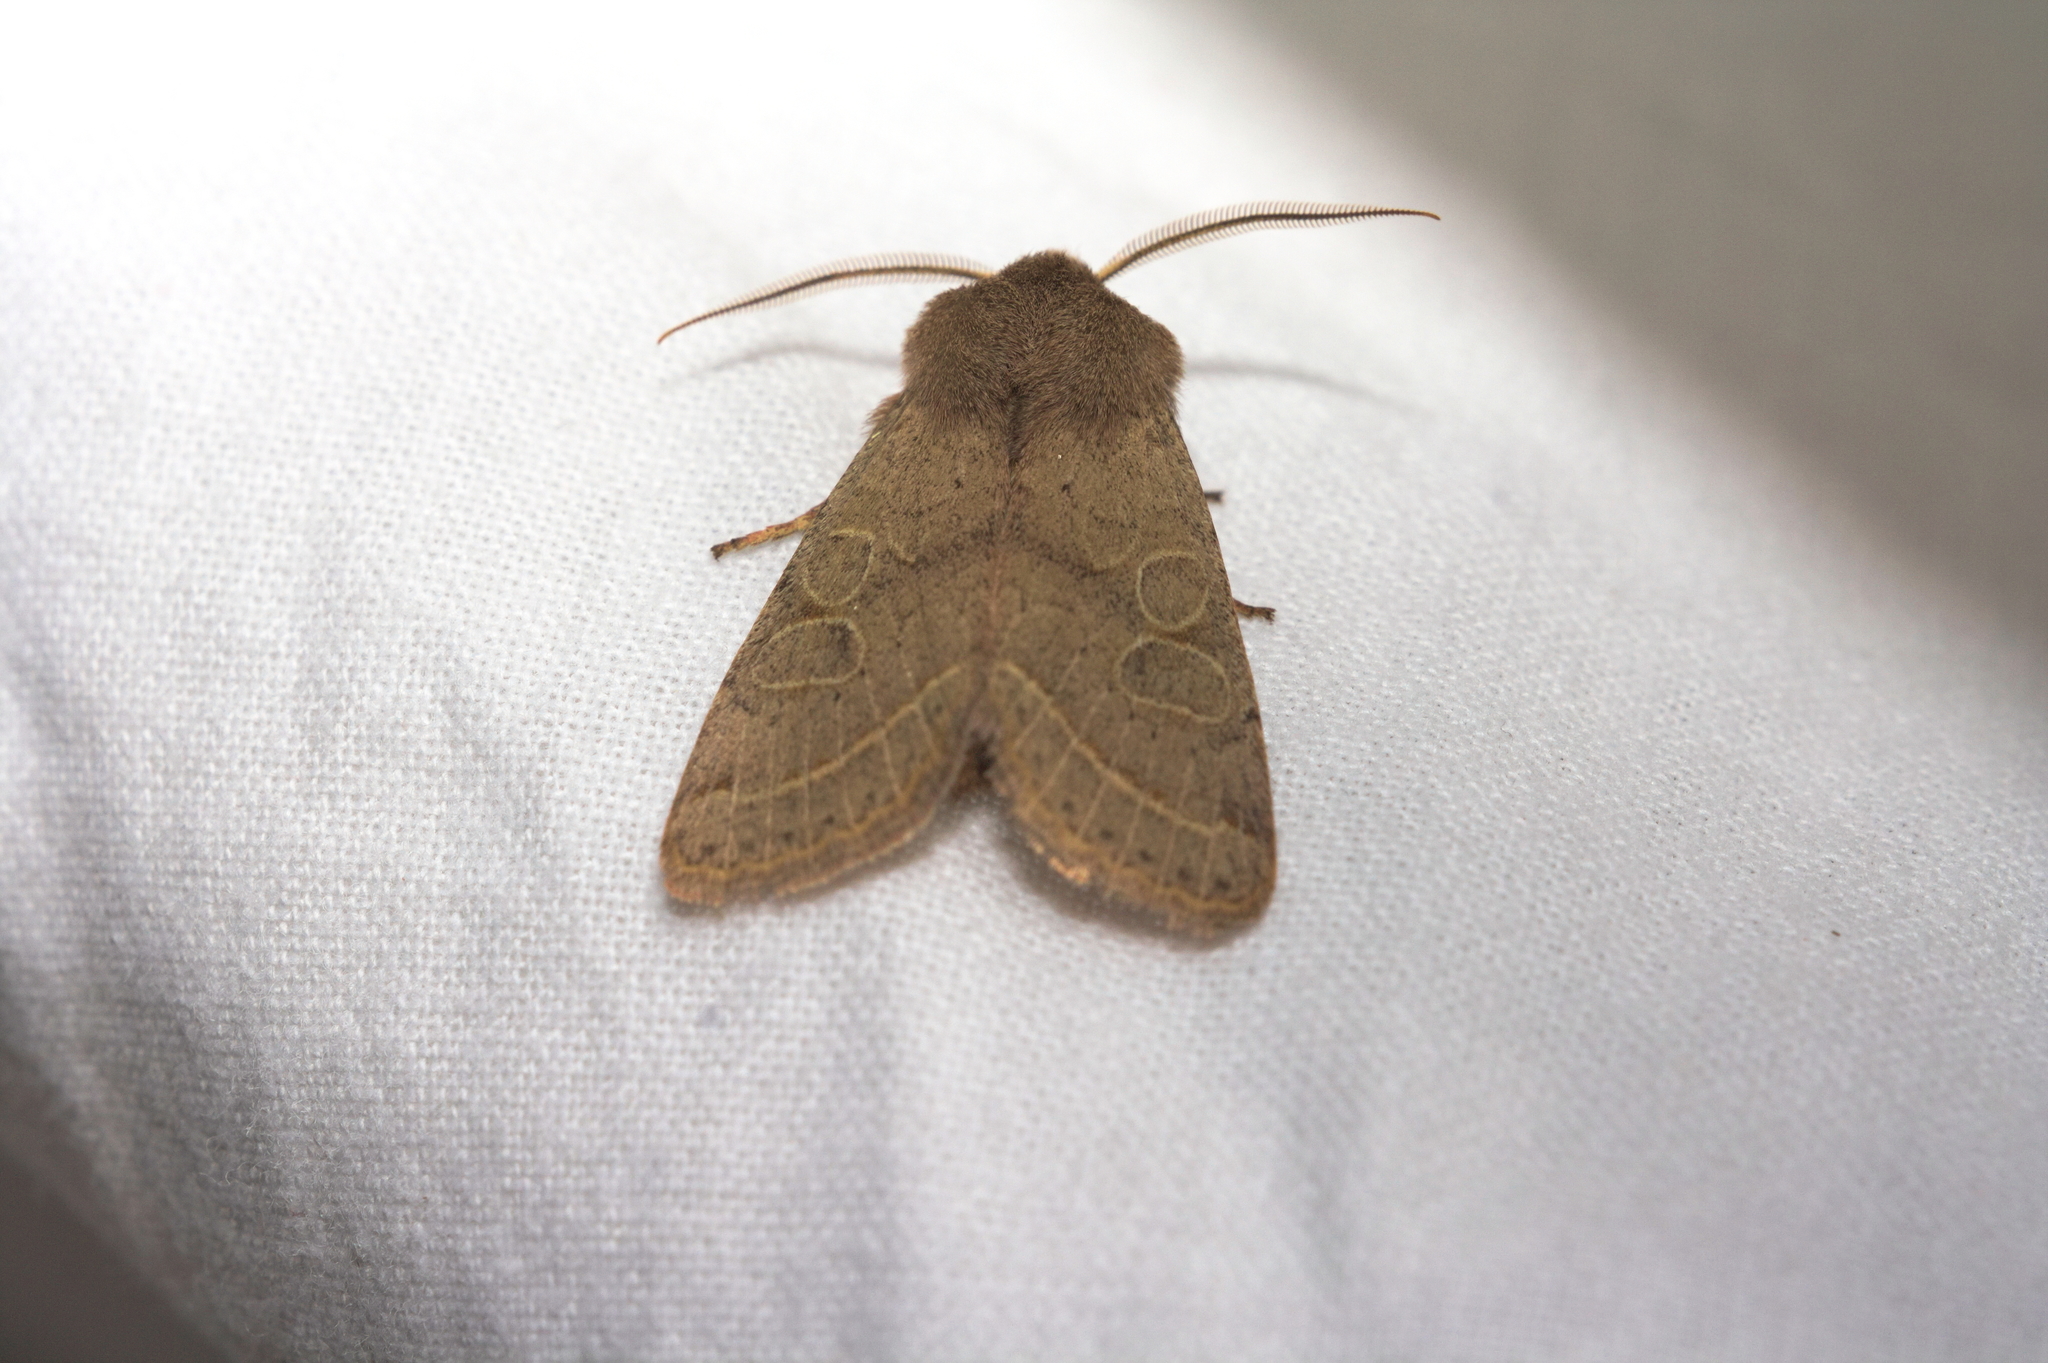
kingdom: Animalia
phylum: Arthropoda
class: Insecta
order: Lepidoptera
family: Noctuidae
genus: Orthosia
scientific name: Orthosia cerasi
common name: Common quaker
